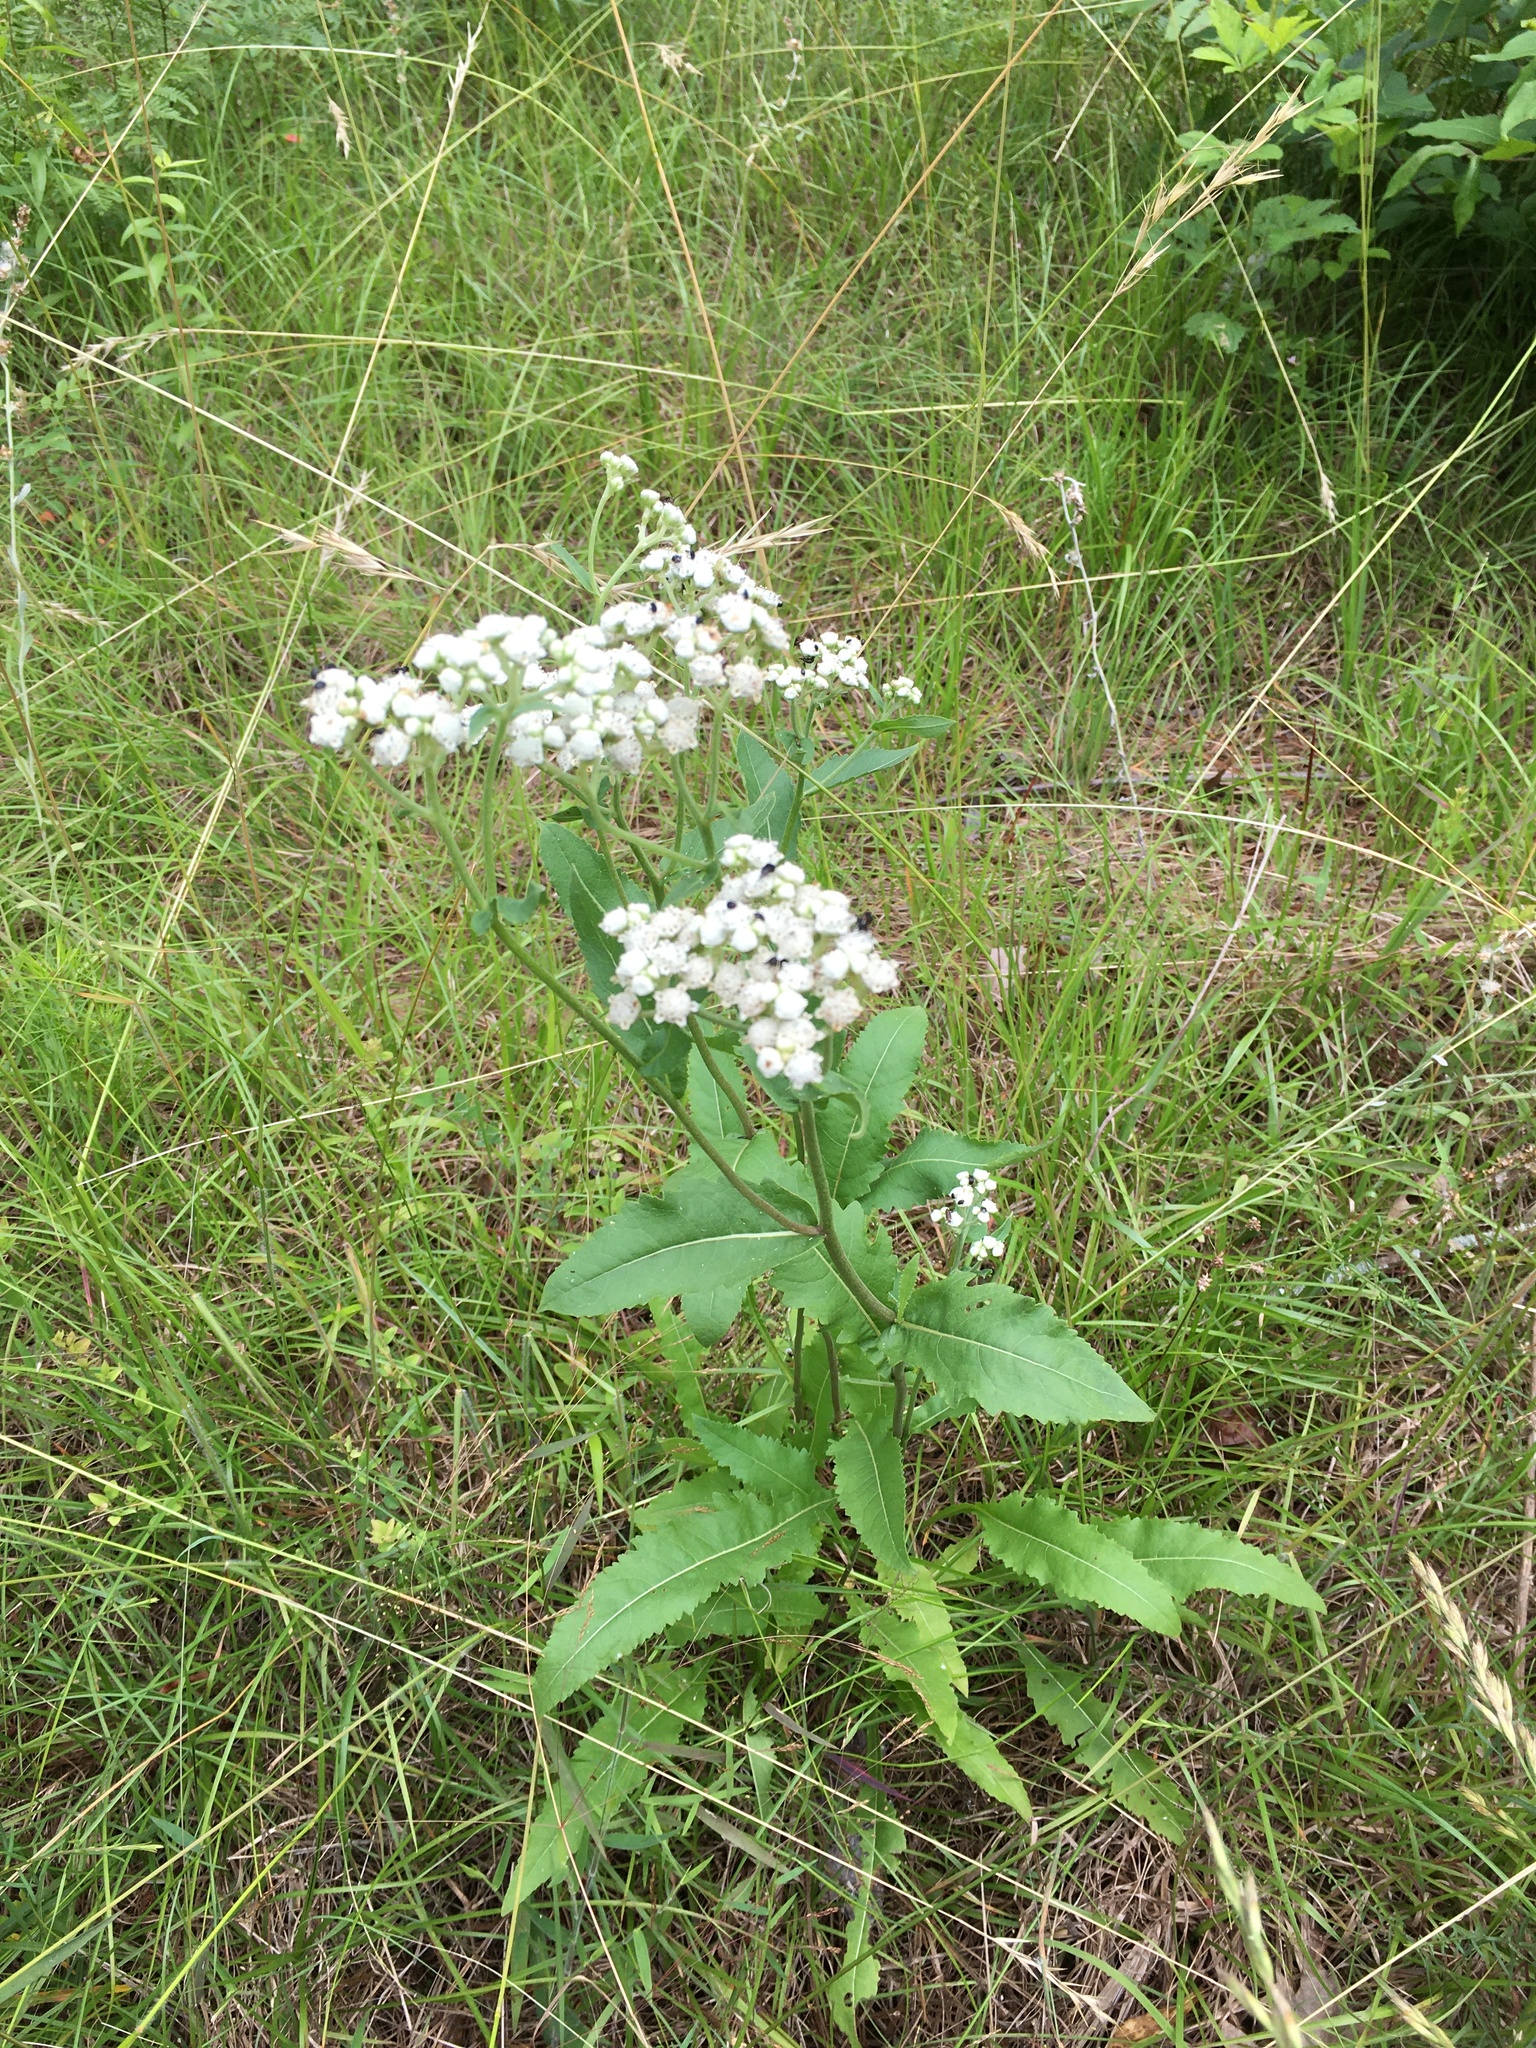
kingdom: Plantae
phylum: Tracheophyta
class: Magnoliopsida
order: Asterales
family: Asteraceae
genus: Parthenium
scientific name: Parthenium integrifolium
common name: American feverfew
